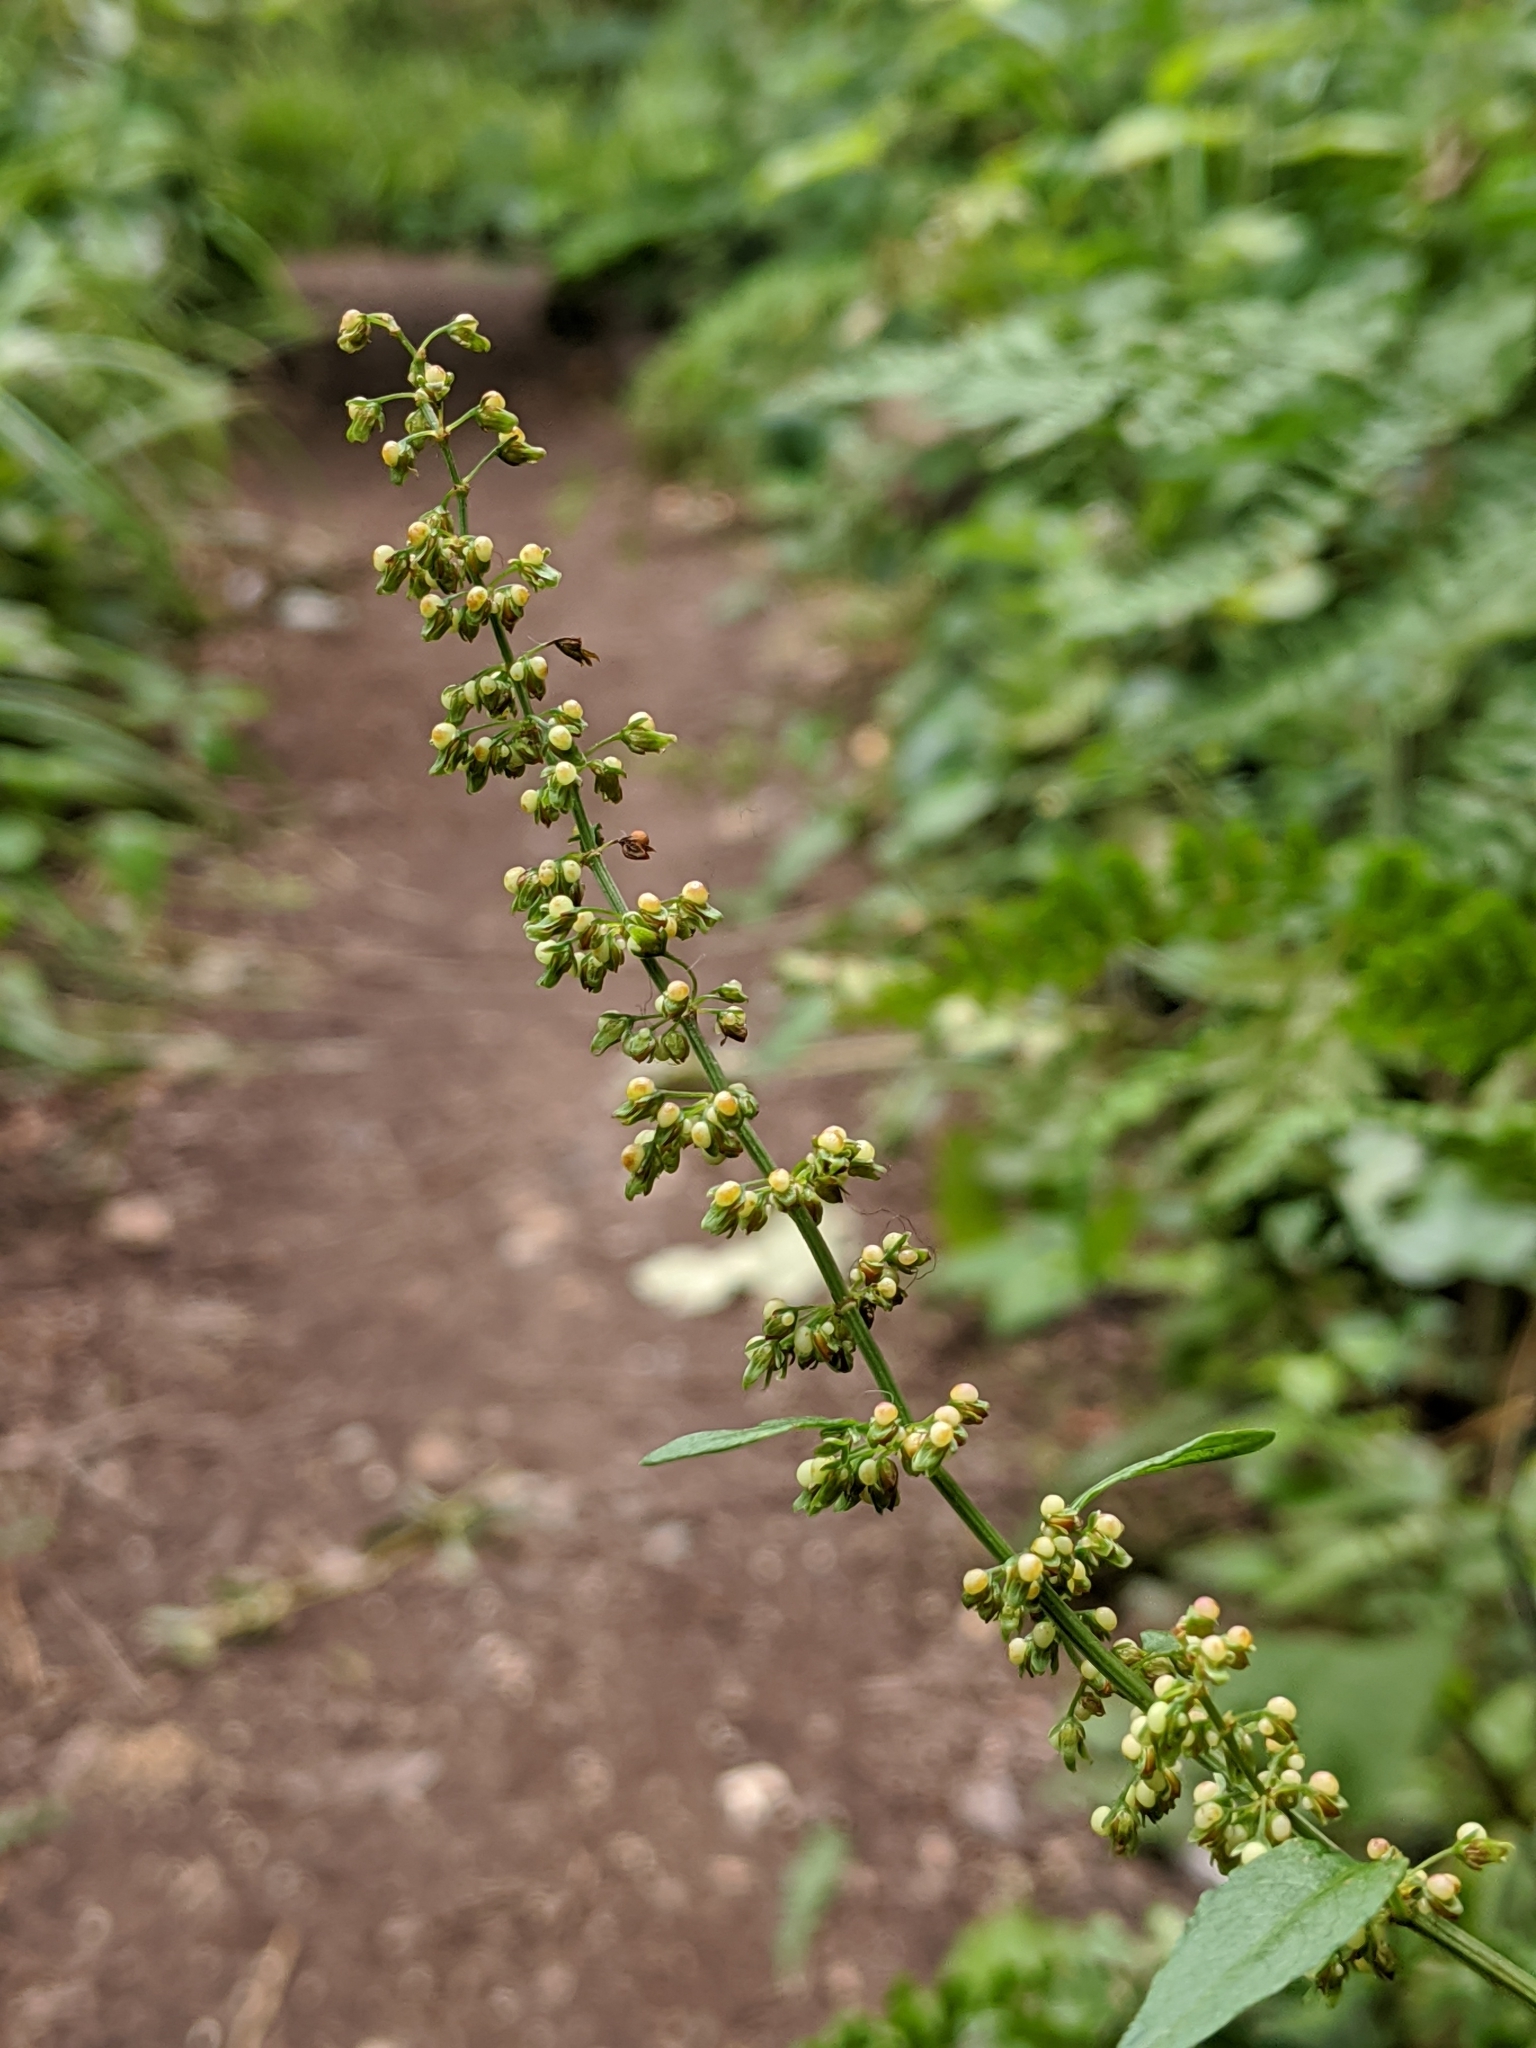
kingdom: Plantae
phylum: Tracheophyta
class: Magnoliopsida
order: Caryophyllales
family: Polygonaceae
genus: Rumex
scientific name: Rumex sanguineus
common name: Wood dock
